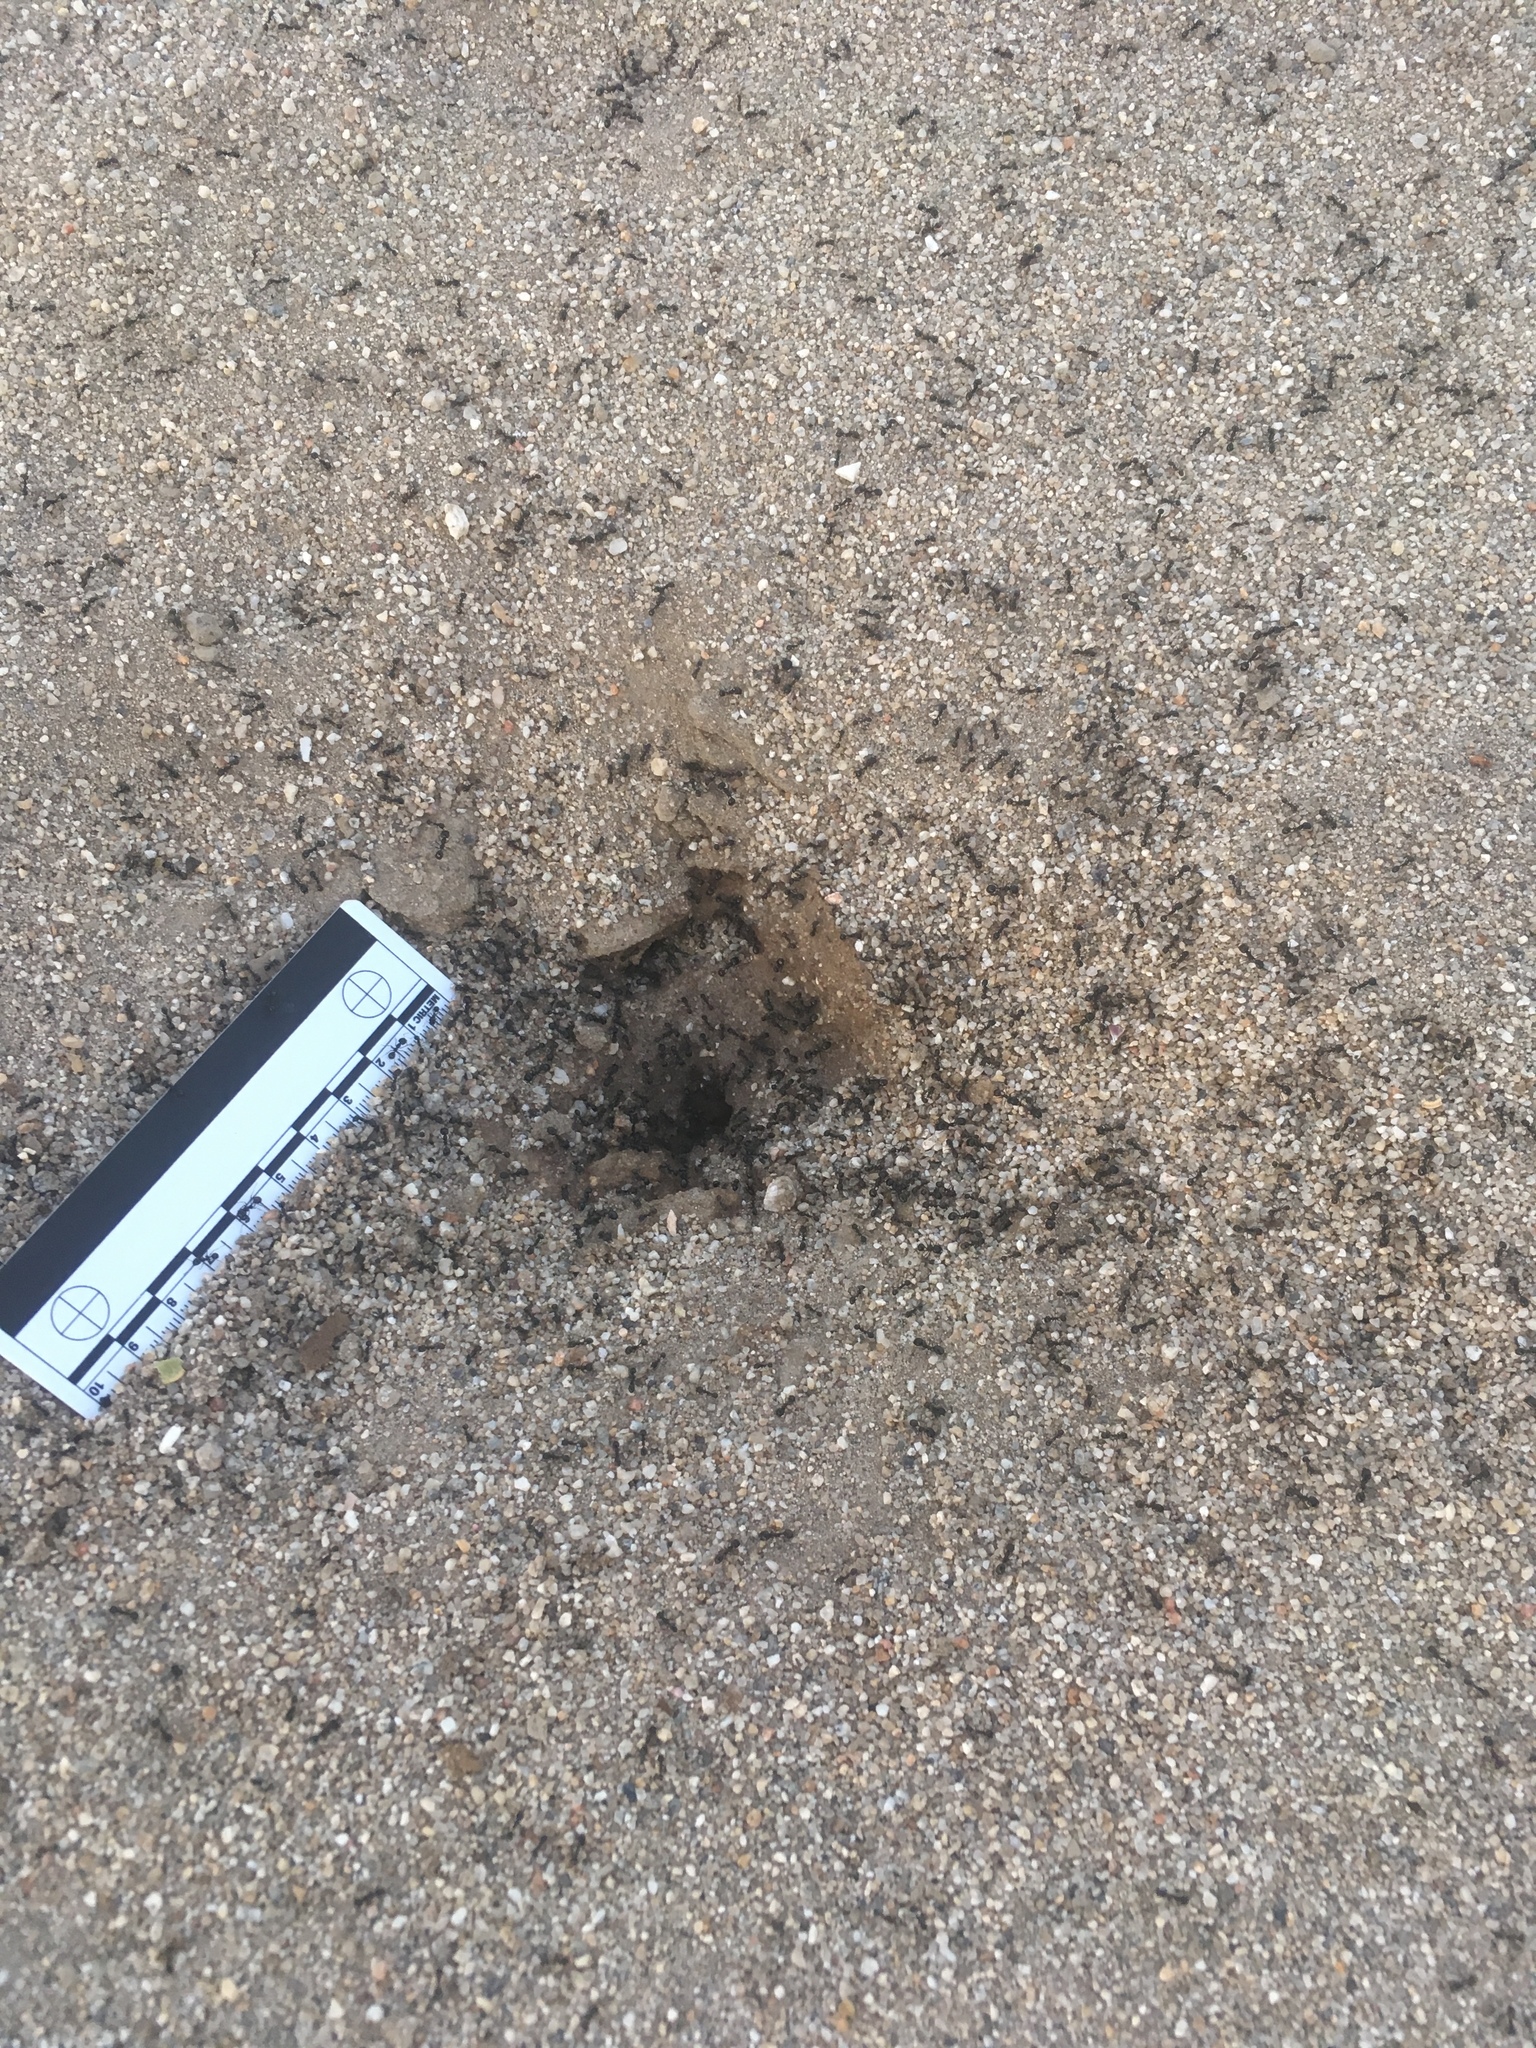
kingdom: Animalia
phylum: Arthropoda
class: Insecta
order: Hymenoptera
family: Formicidae
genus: Messor
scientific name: Messor pergandei
